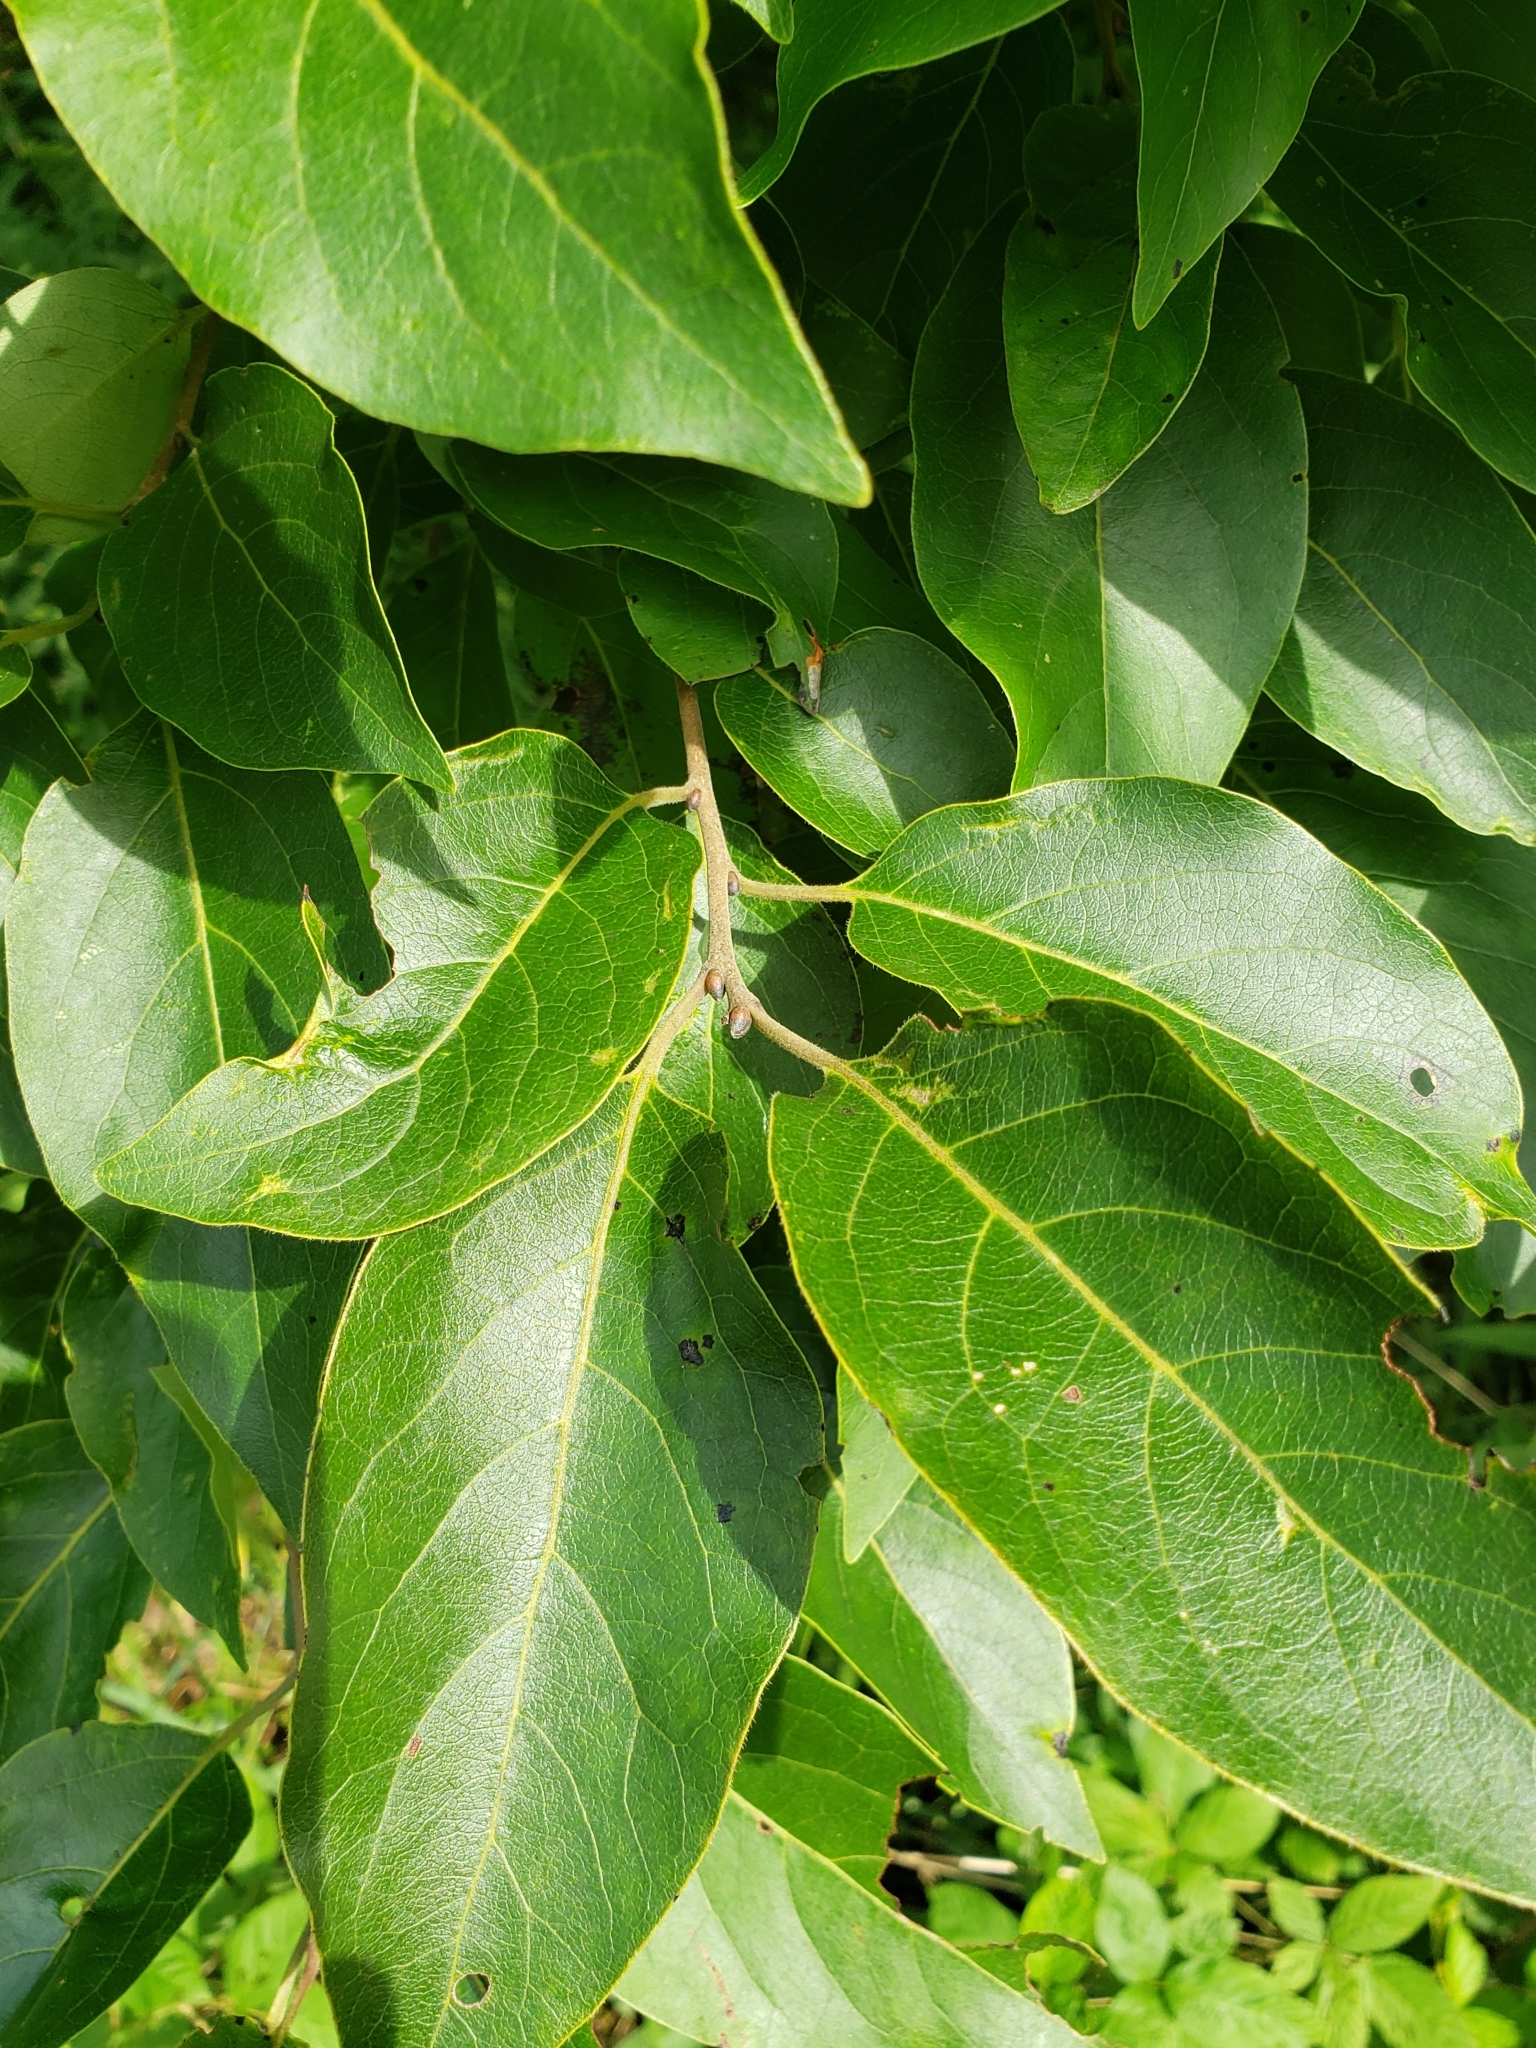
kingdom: Plantae
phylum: Tracheophyta
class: Magnoliopsida
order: Ericales
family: Ebenaceae
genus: Diospyros
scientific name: Diospyros virginiana
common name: Persimmon
